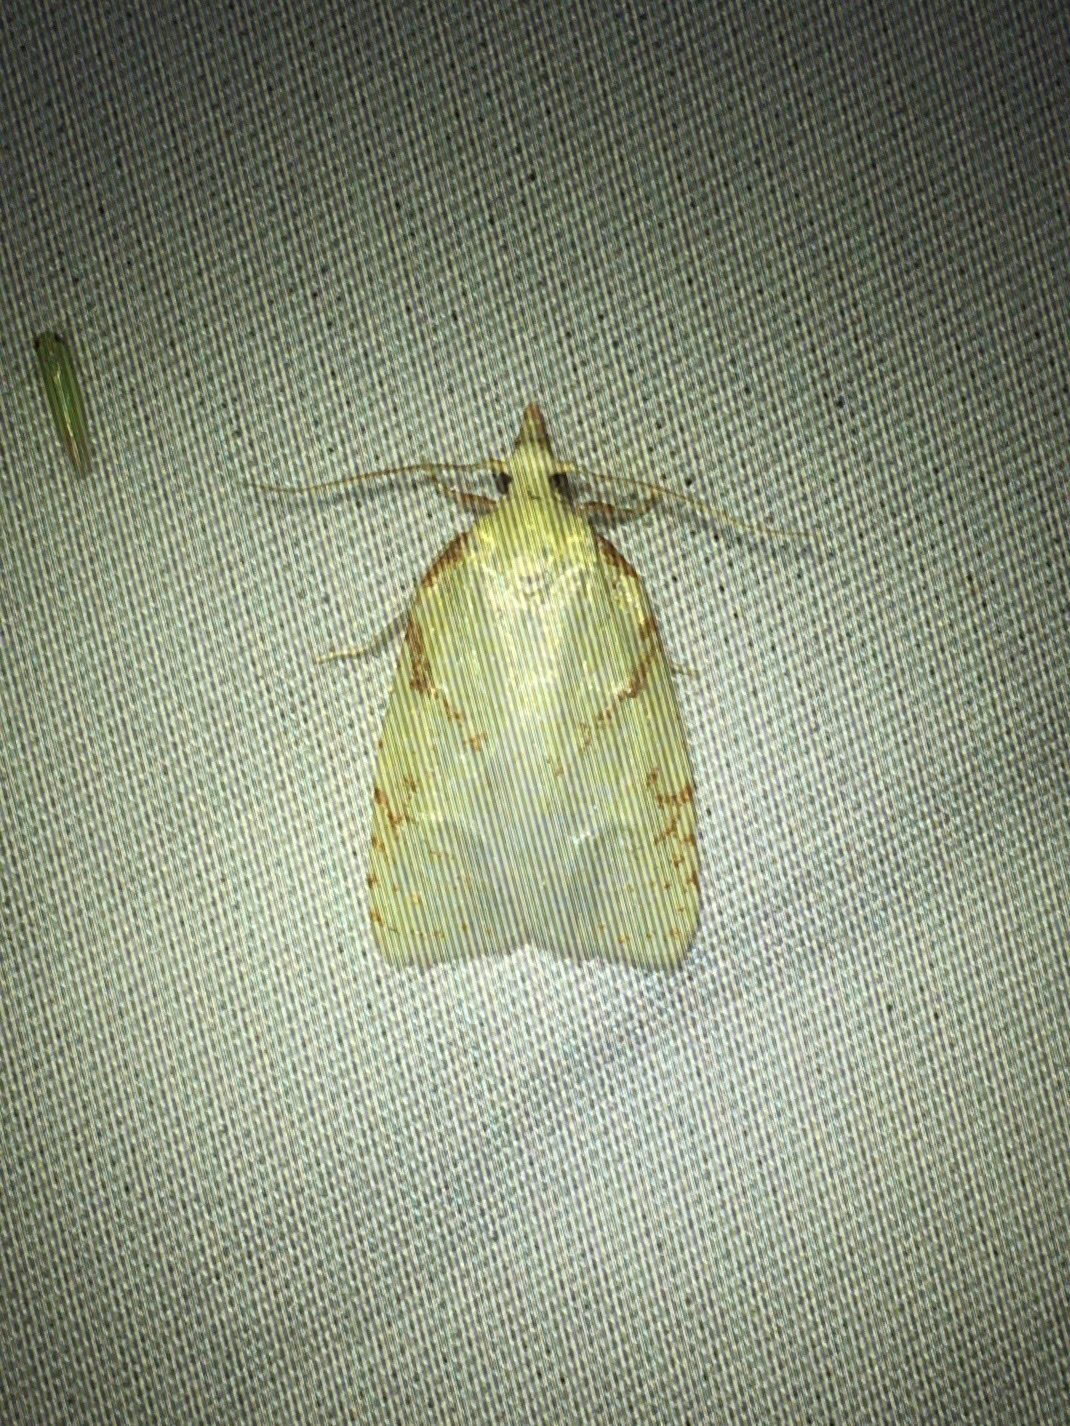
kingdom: Animalia
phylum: Arthropoda
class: Insecta
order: Lepidoptera
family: Tortricidae
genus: Cenopis
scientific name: Cenopis pettitana
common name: Maple-basswood leafroller moth
